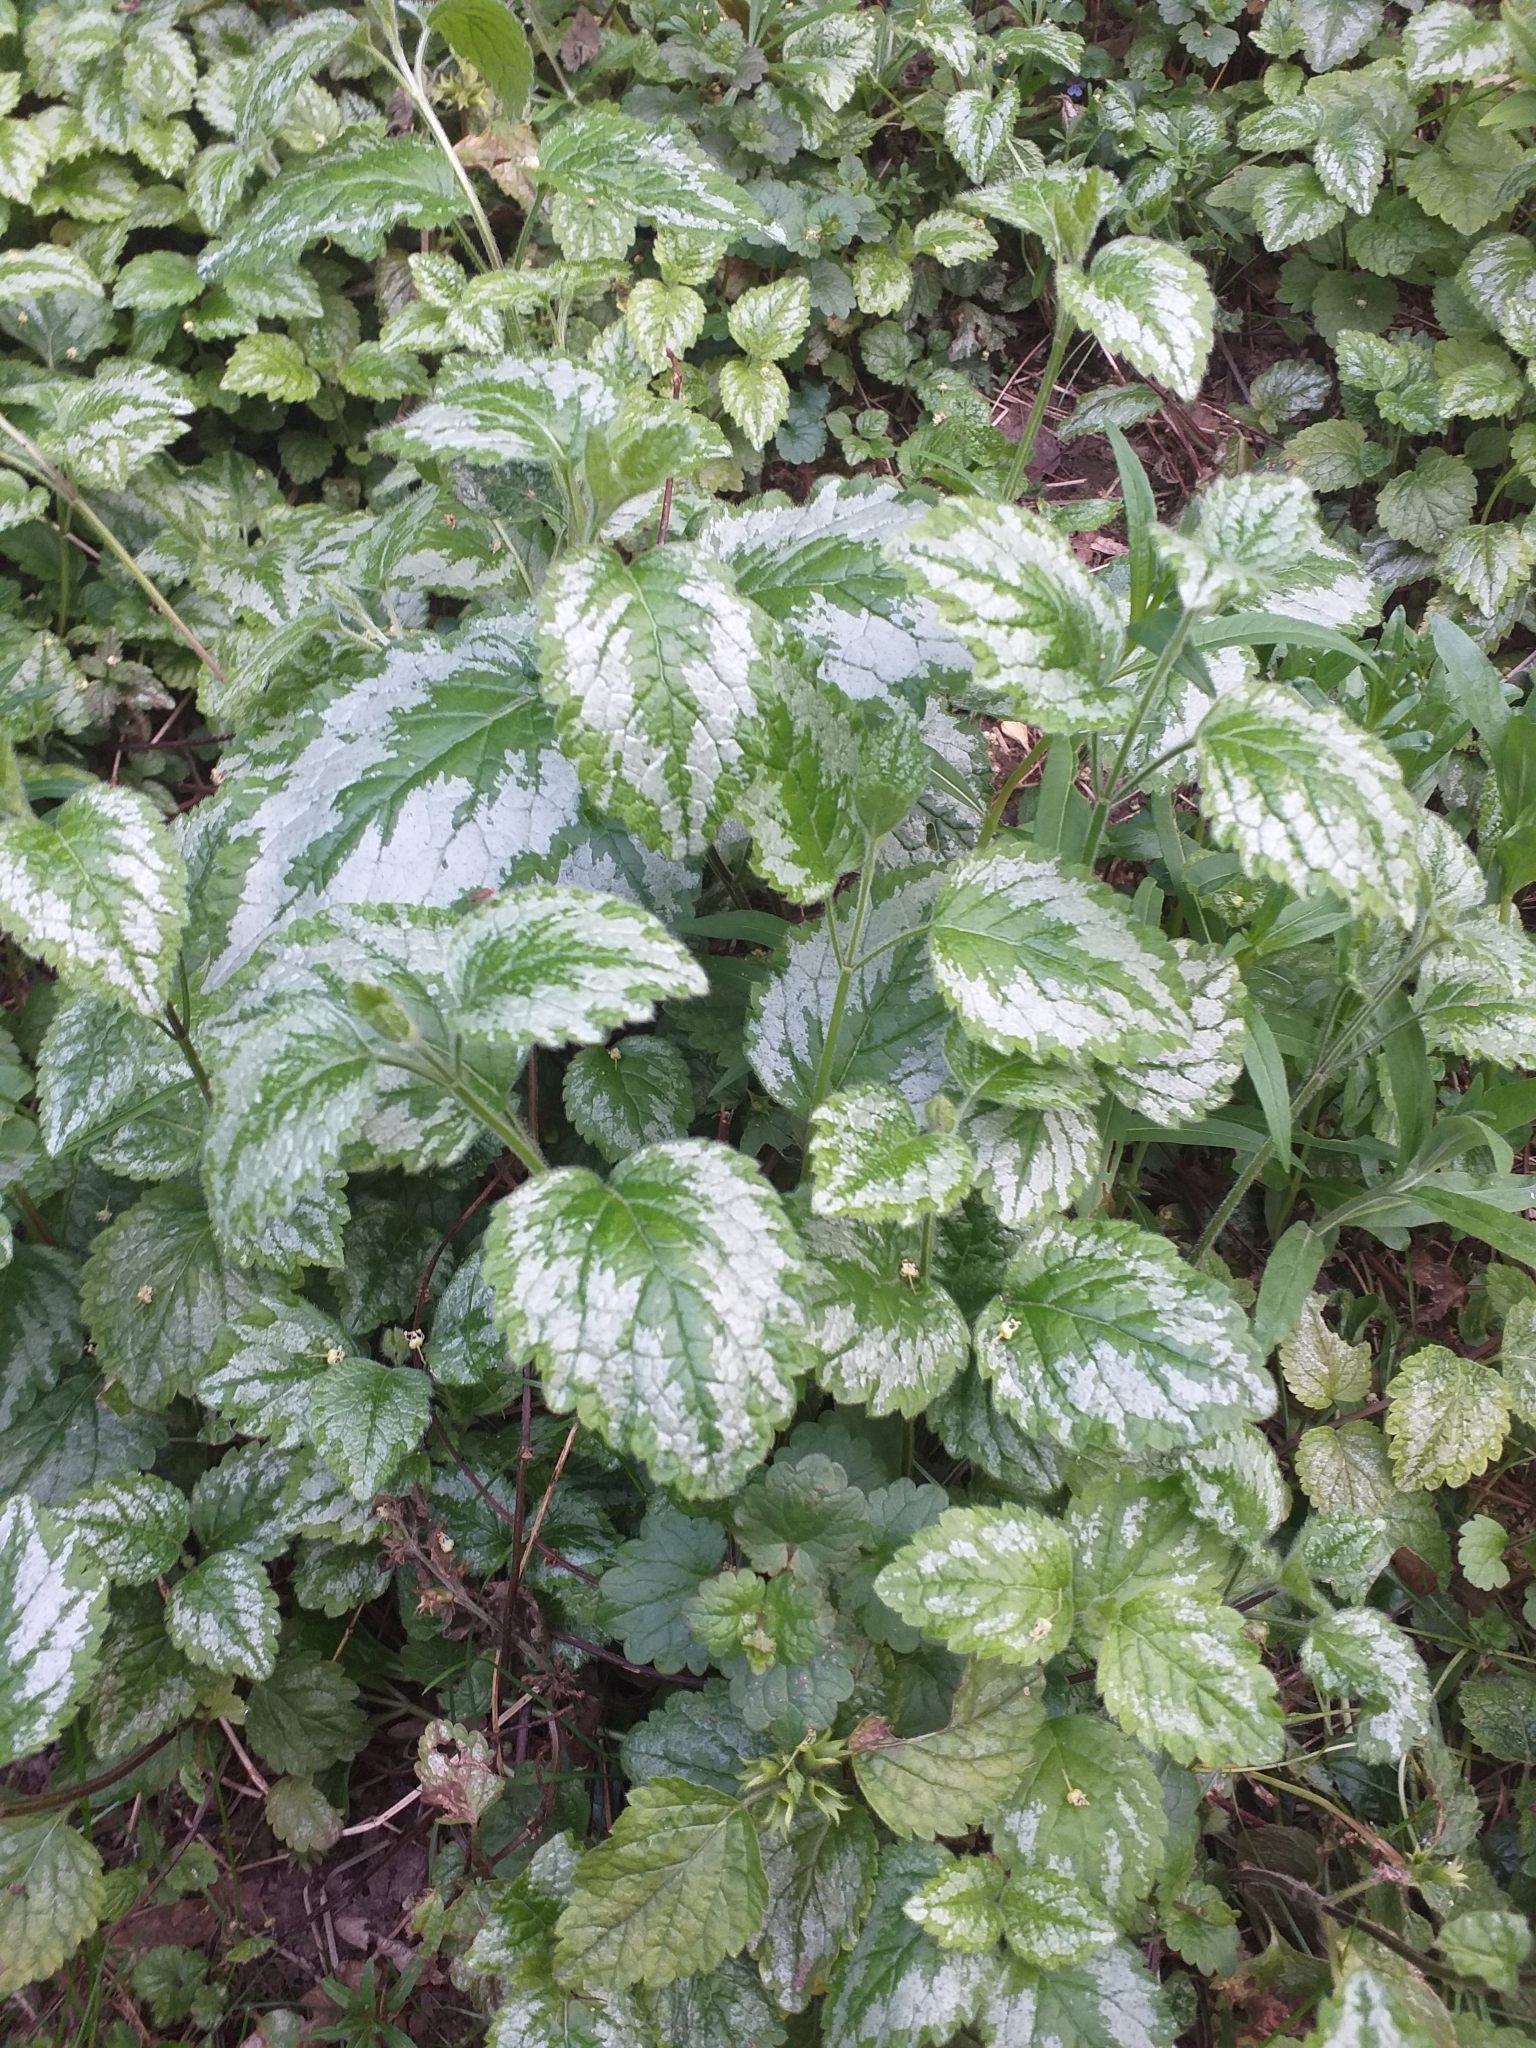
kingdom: Plantae
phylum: Tracheophyta
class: Magnoliopsida
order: Lamiales
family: Lamiaceae
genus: Lamium
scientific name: Lamium galeobdolon
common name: Yellow archangel
